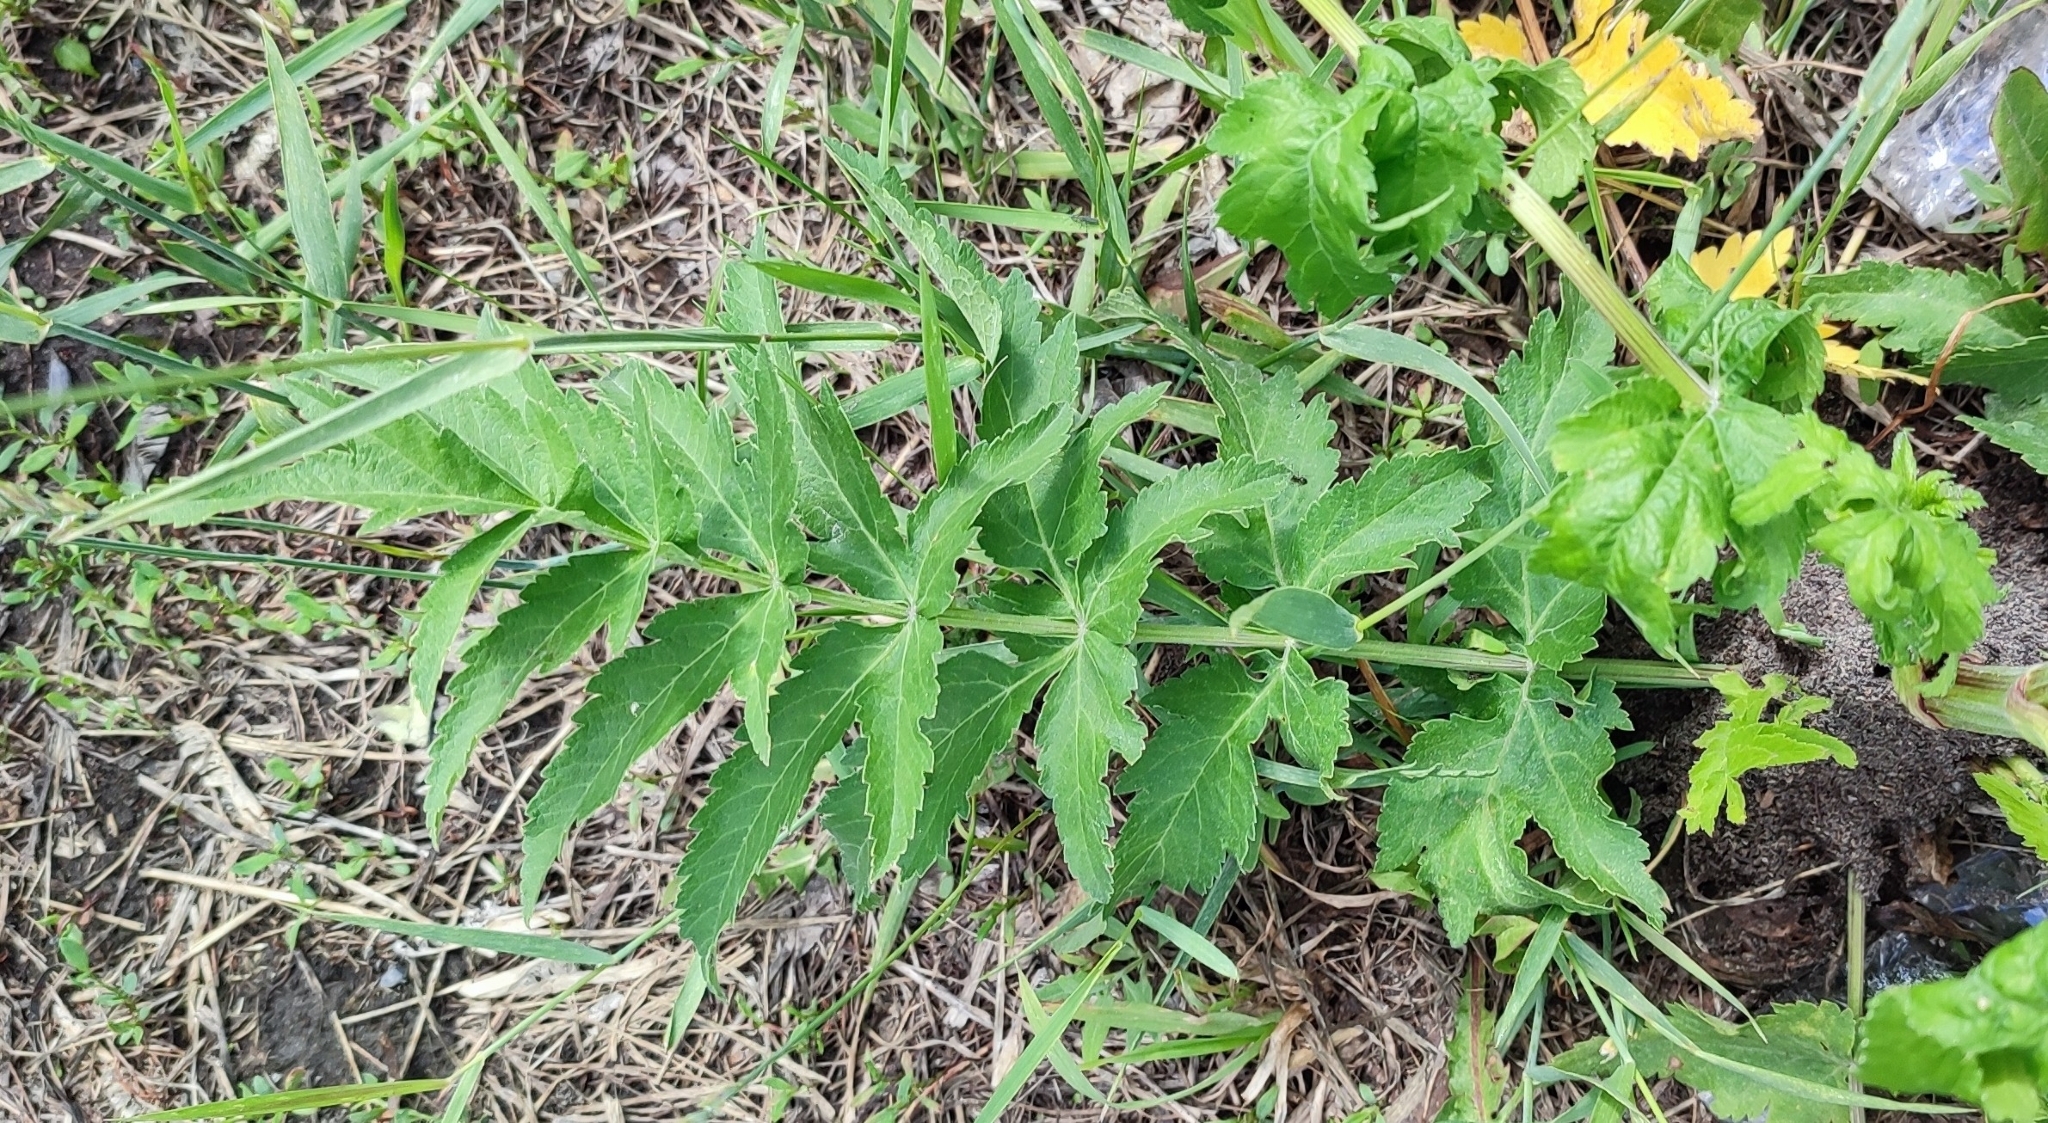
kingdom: Plantae
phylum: Tracheophyta
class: Magnoliopsida
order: Apiales
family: Apiaceae
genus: Pastinaca
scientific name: Pastinaca sativa
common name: Wild parsnip
